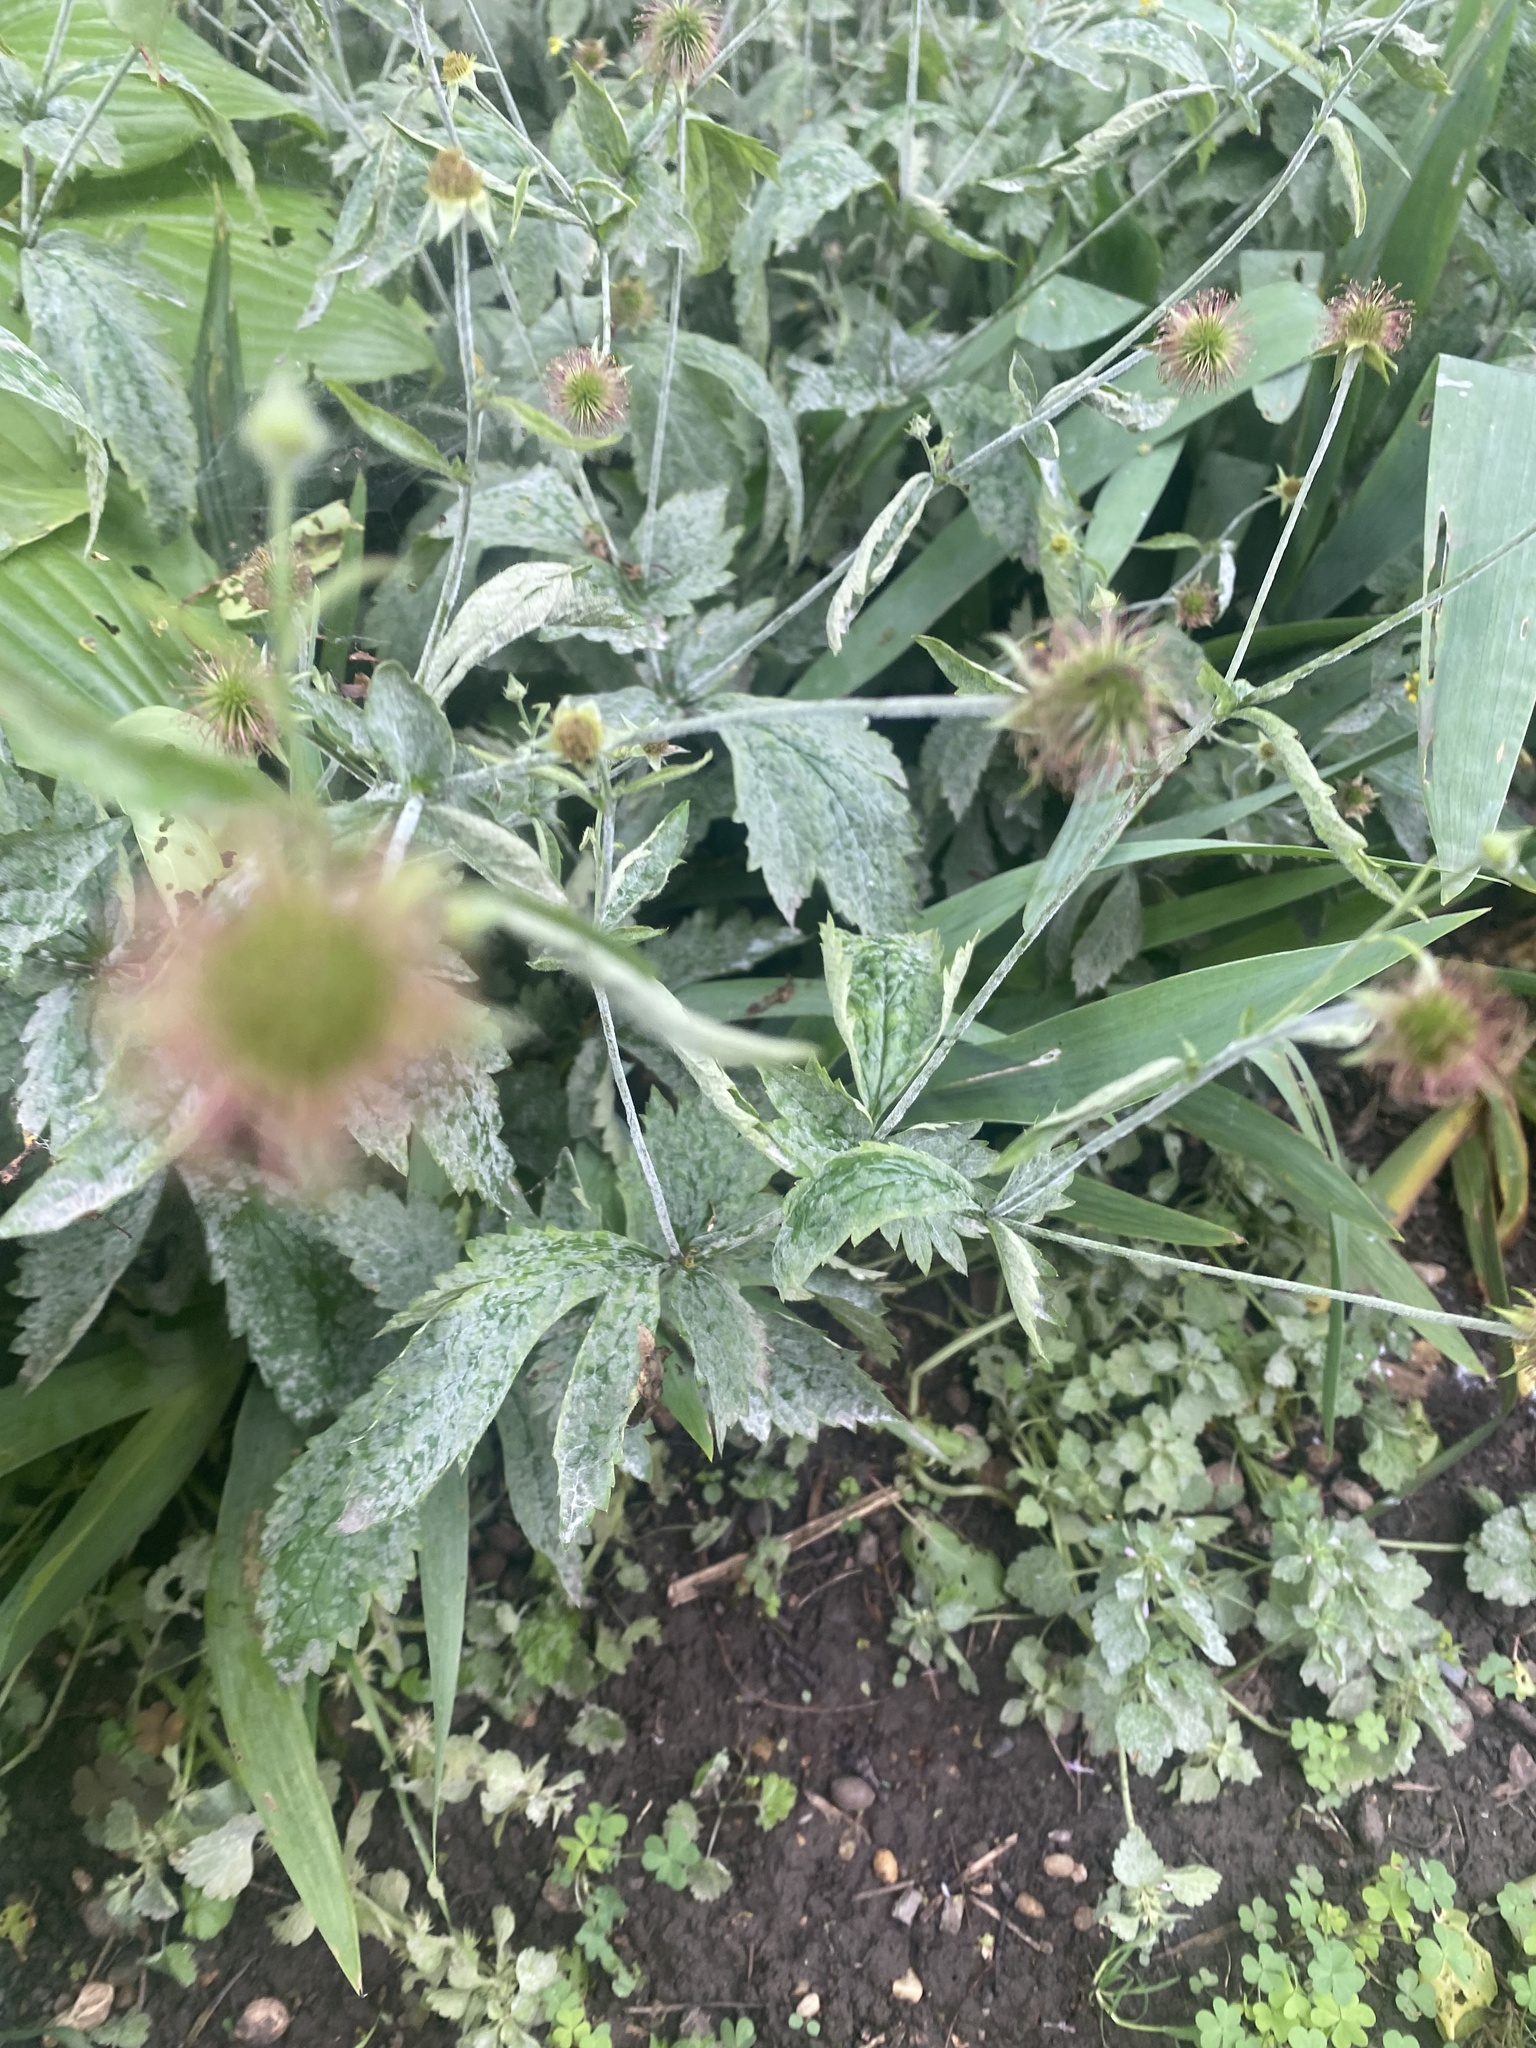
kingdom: Plantae
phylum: Tracheophyta
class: Magnoliopsida
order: Rosales
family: Rosaceae
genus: Geum
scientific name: Geum urbanum
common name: Wood avens
